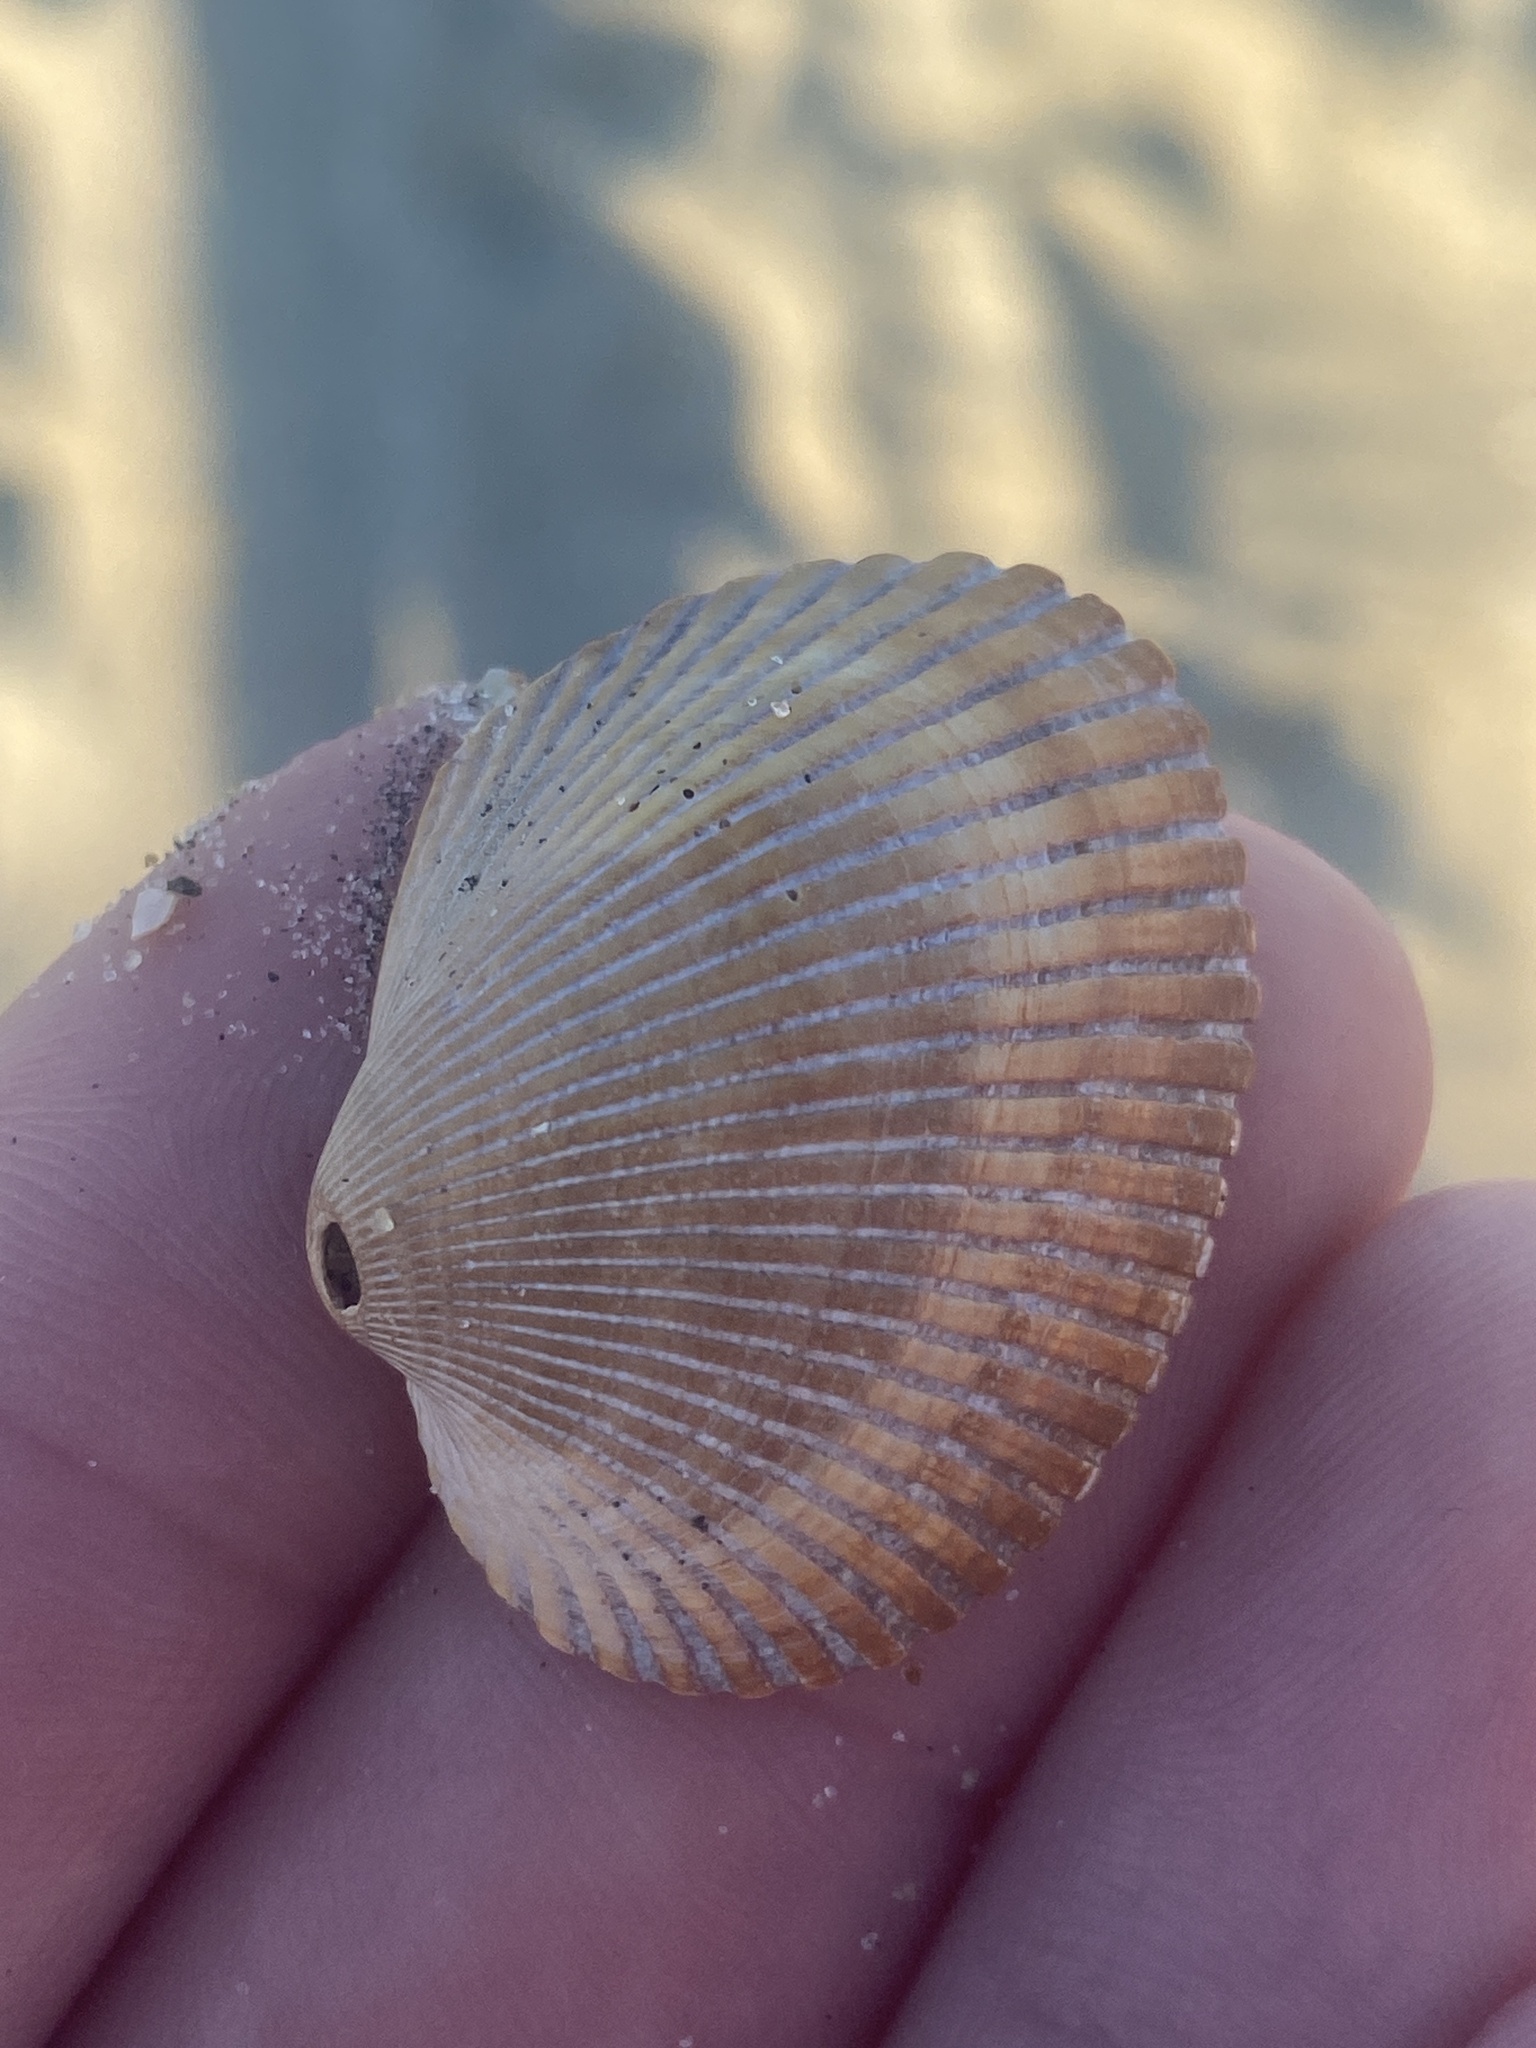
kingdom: Animalia
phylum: Mollusca
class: Bivalvia
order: Arcida
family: Arcidae
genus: Lunarca
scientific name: Lunarca ovalis
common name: Blood ark
